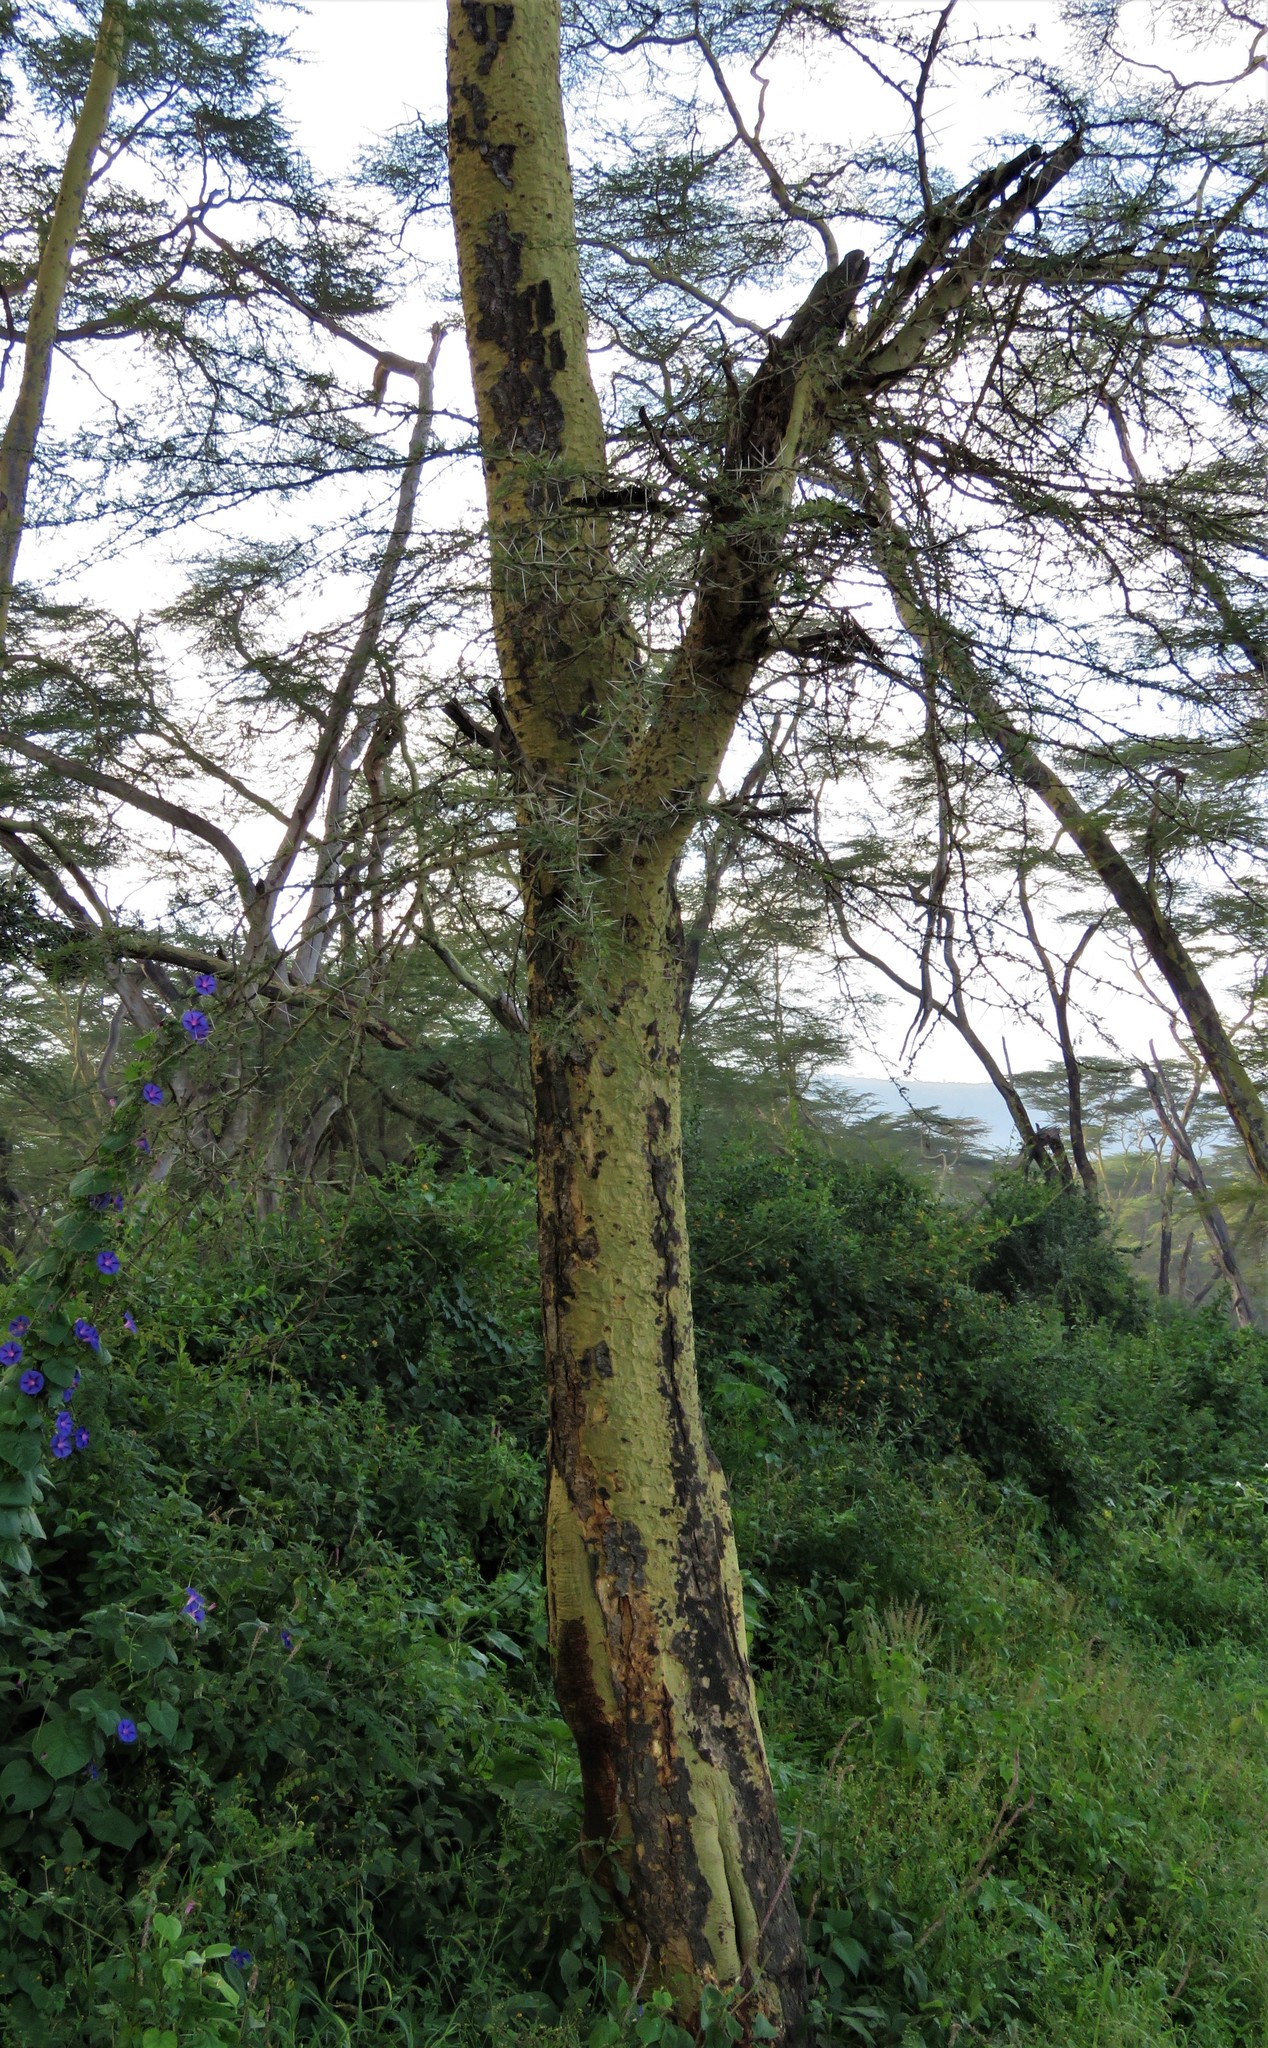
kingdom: Plantae
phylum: Tracheophyta
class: Magnoliopsida
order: Fabales
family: Fabaceae
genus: Vachellia
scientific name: Vachellia xanthophloea
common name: Fever tree
